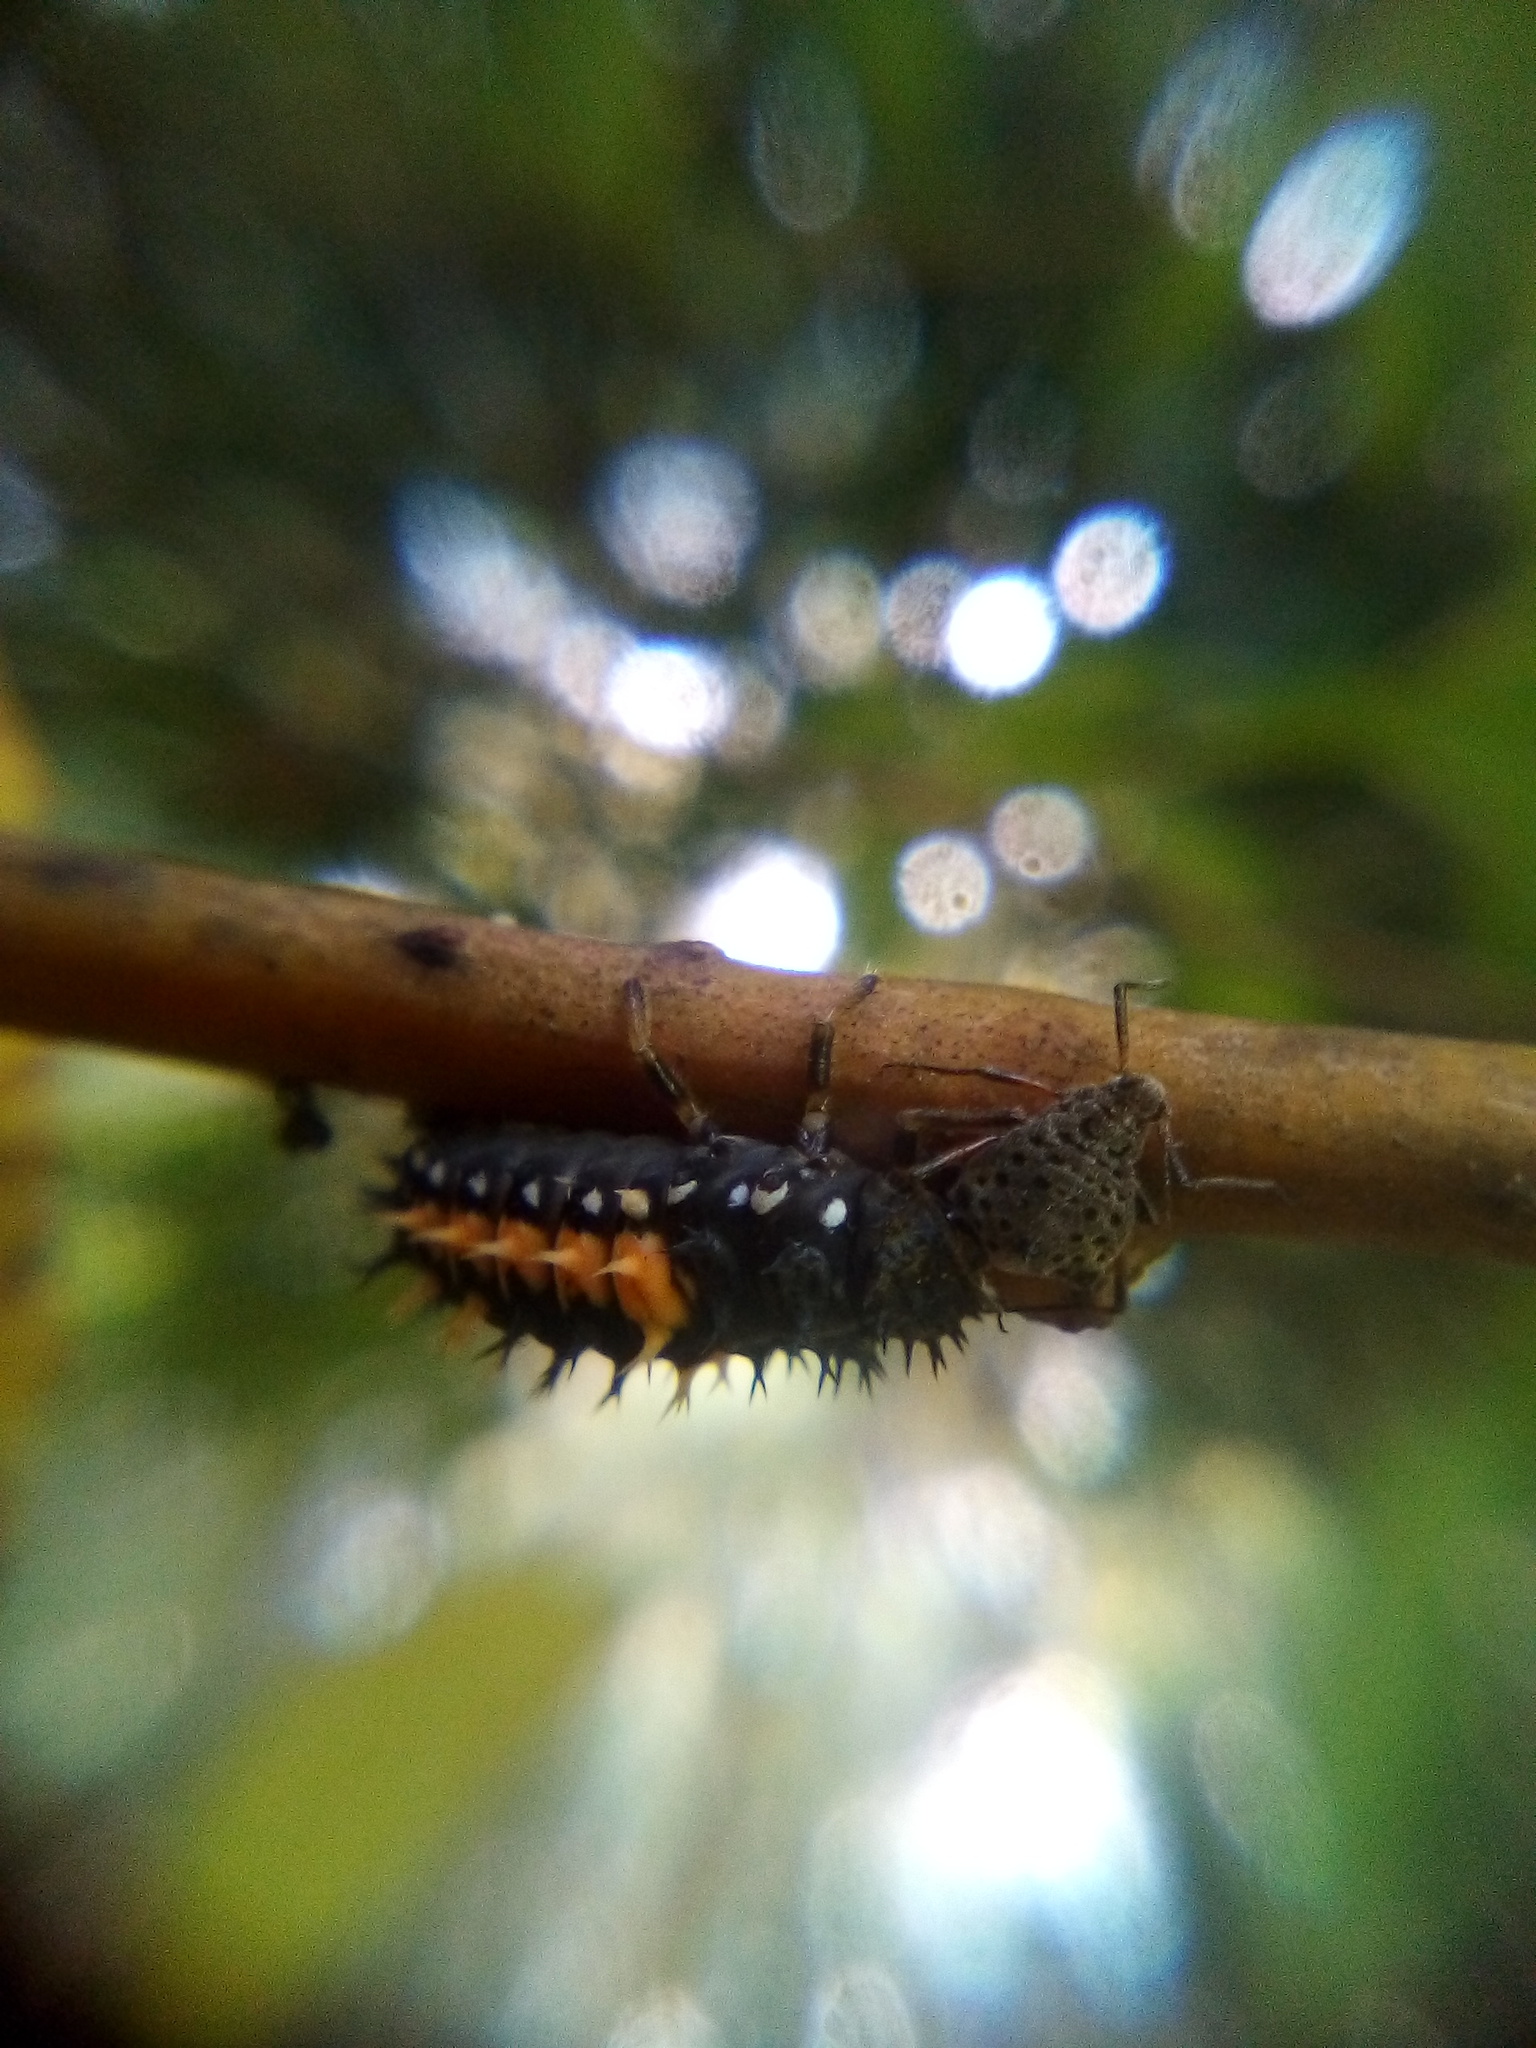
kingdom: Animalia
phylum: Arthropoda
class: Insecta
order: Coleoptera
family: Coccinellidae
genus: Harmonia
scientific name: Harmonia axyridis
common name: Harlequin ladybird
